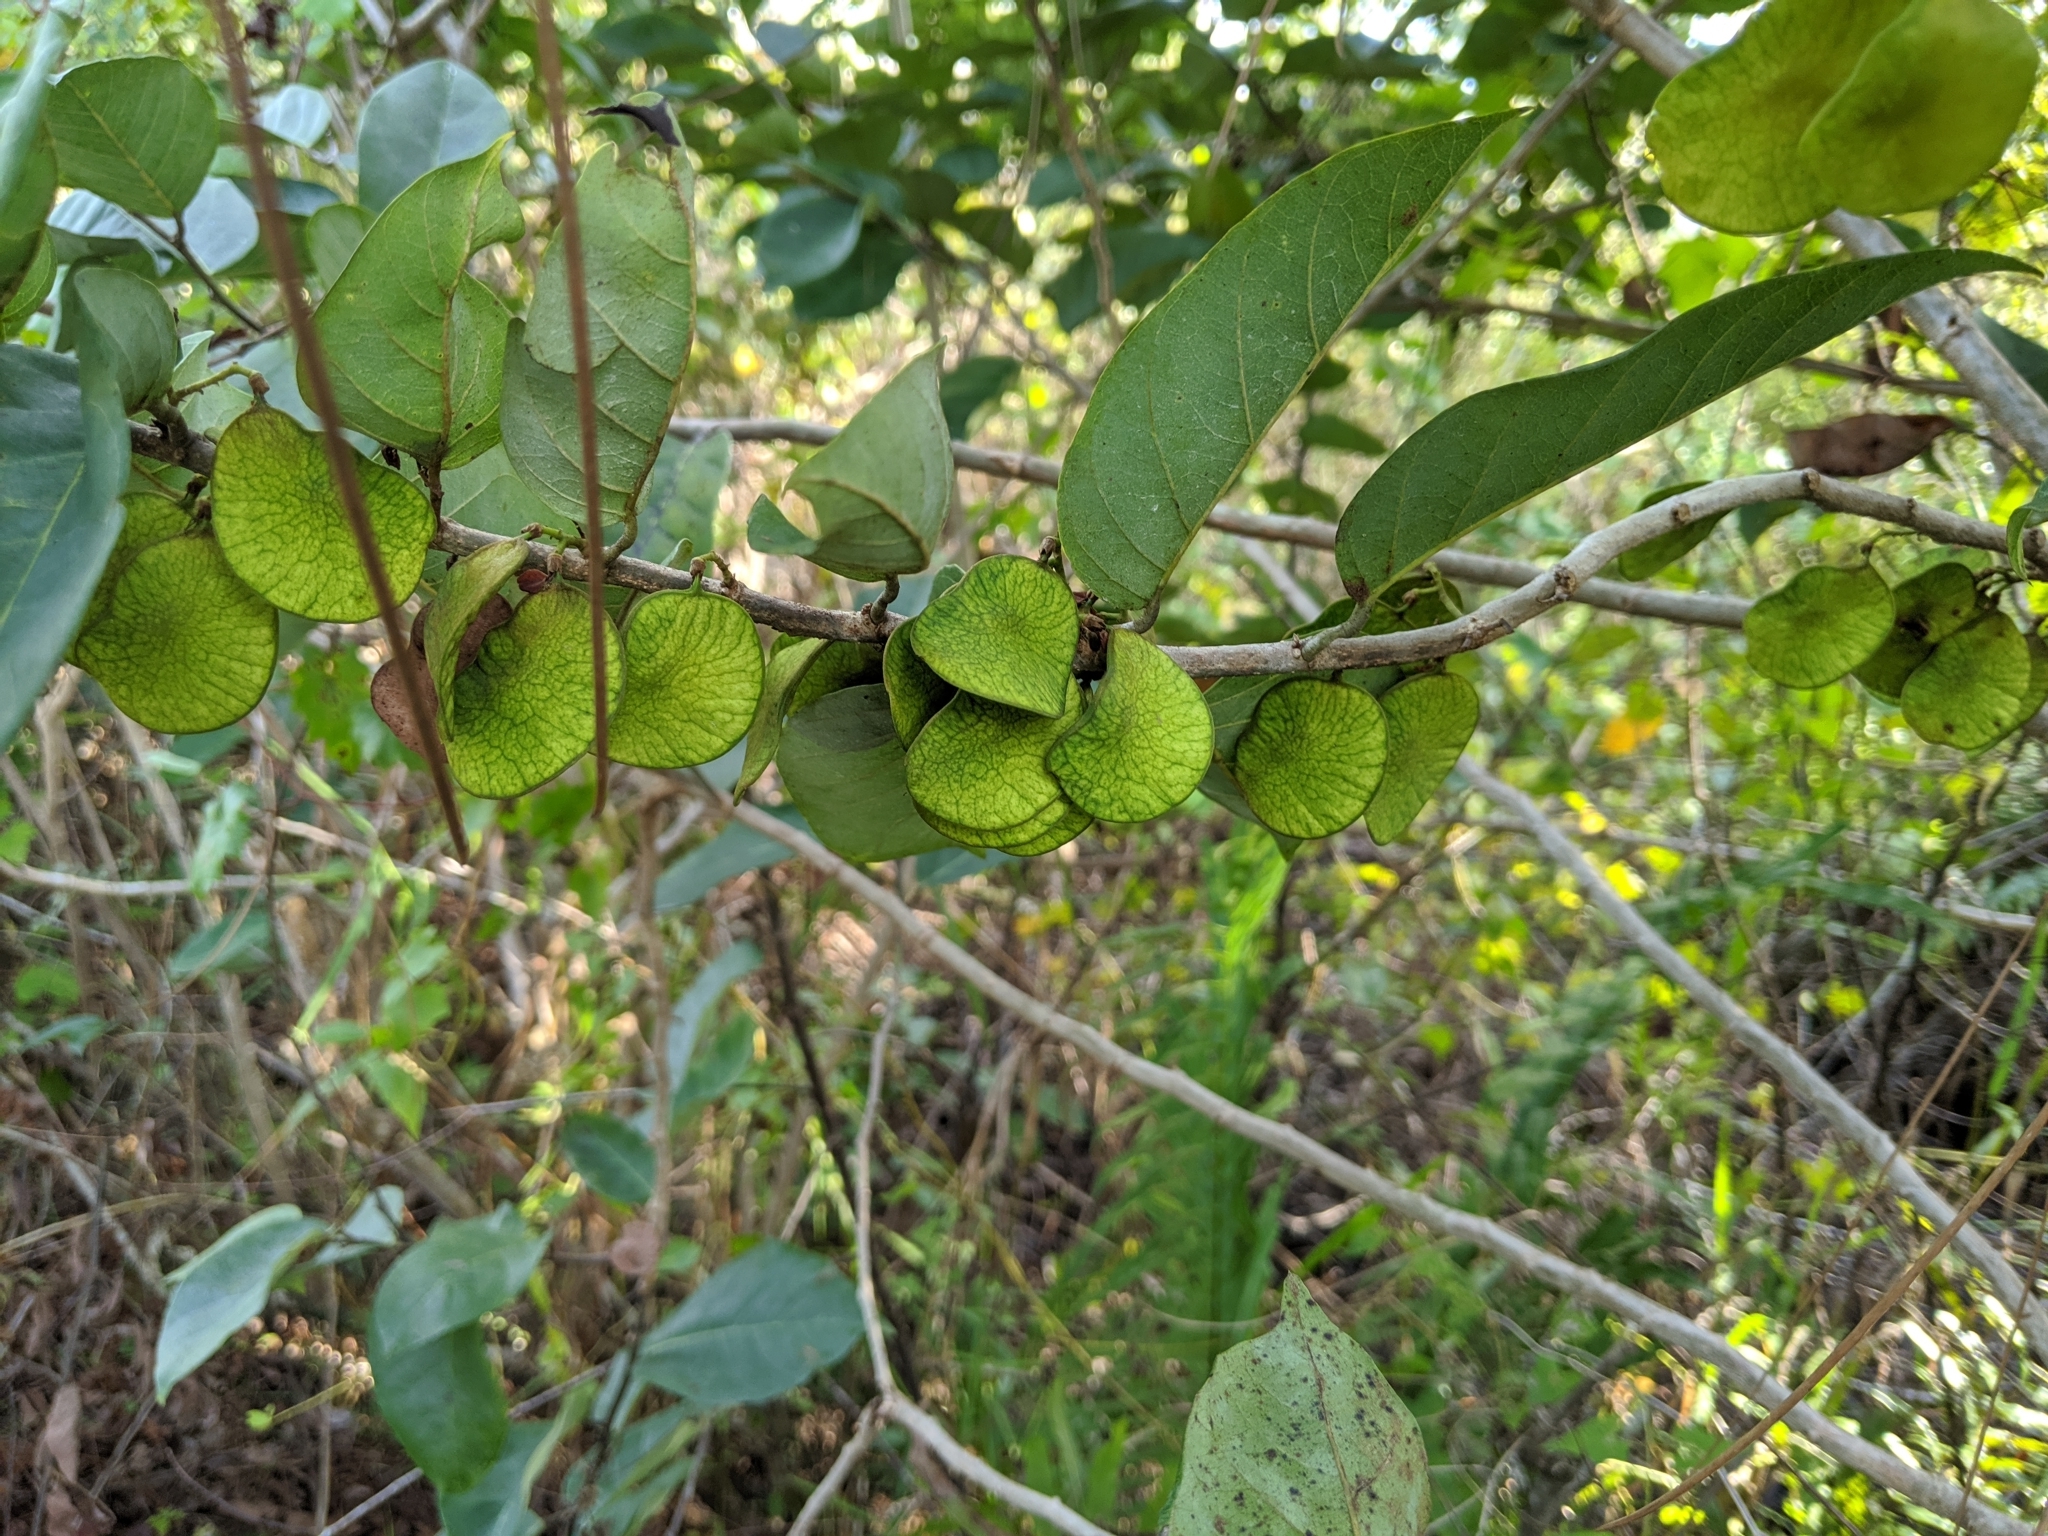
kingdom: Plantae
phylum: Tracheophyta
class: Magnoliopsida
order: Fabales
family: Fabaceae
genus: Dalbergia
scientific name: Dalbergia ecastaphyllum
